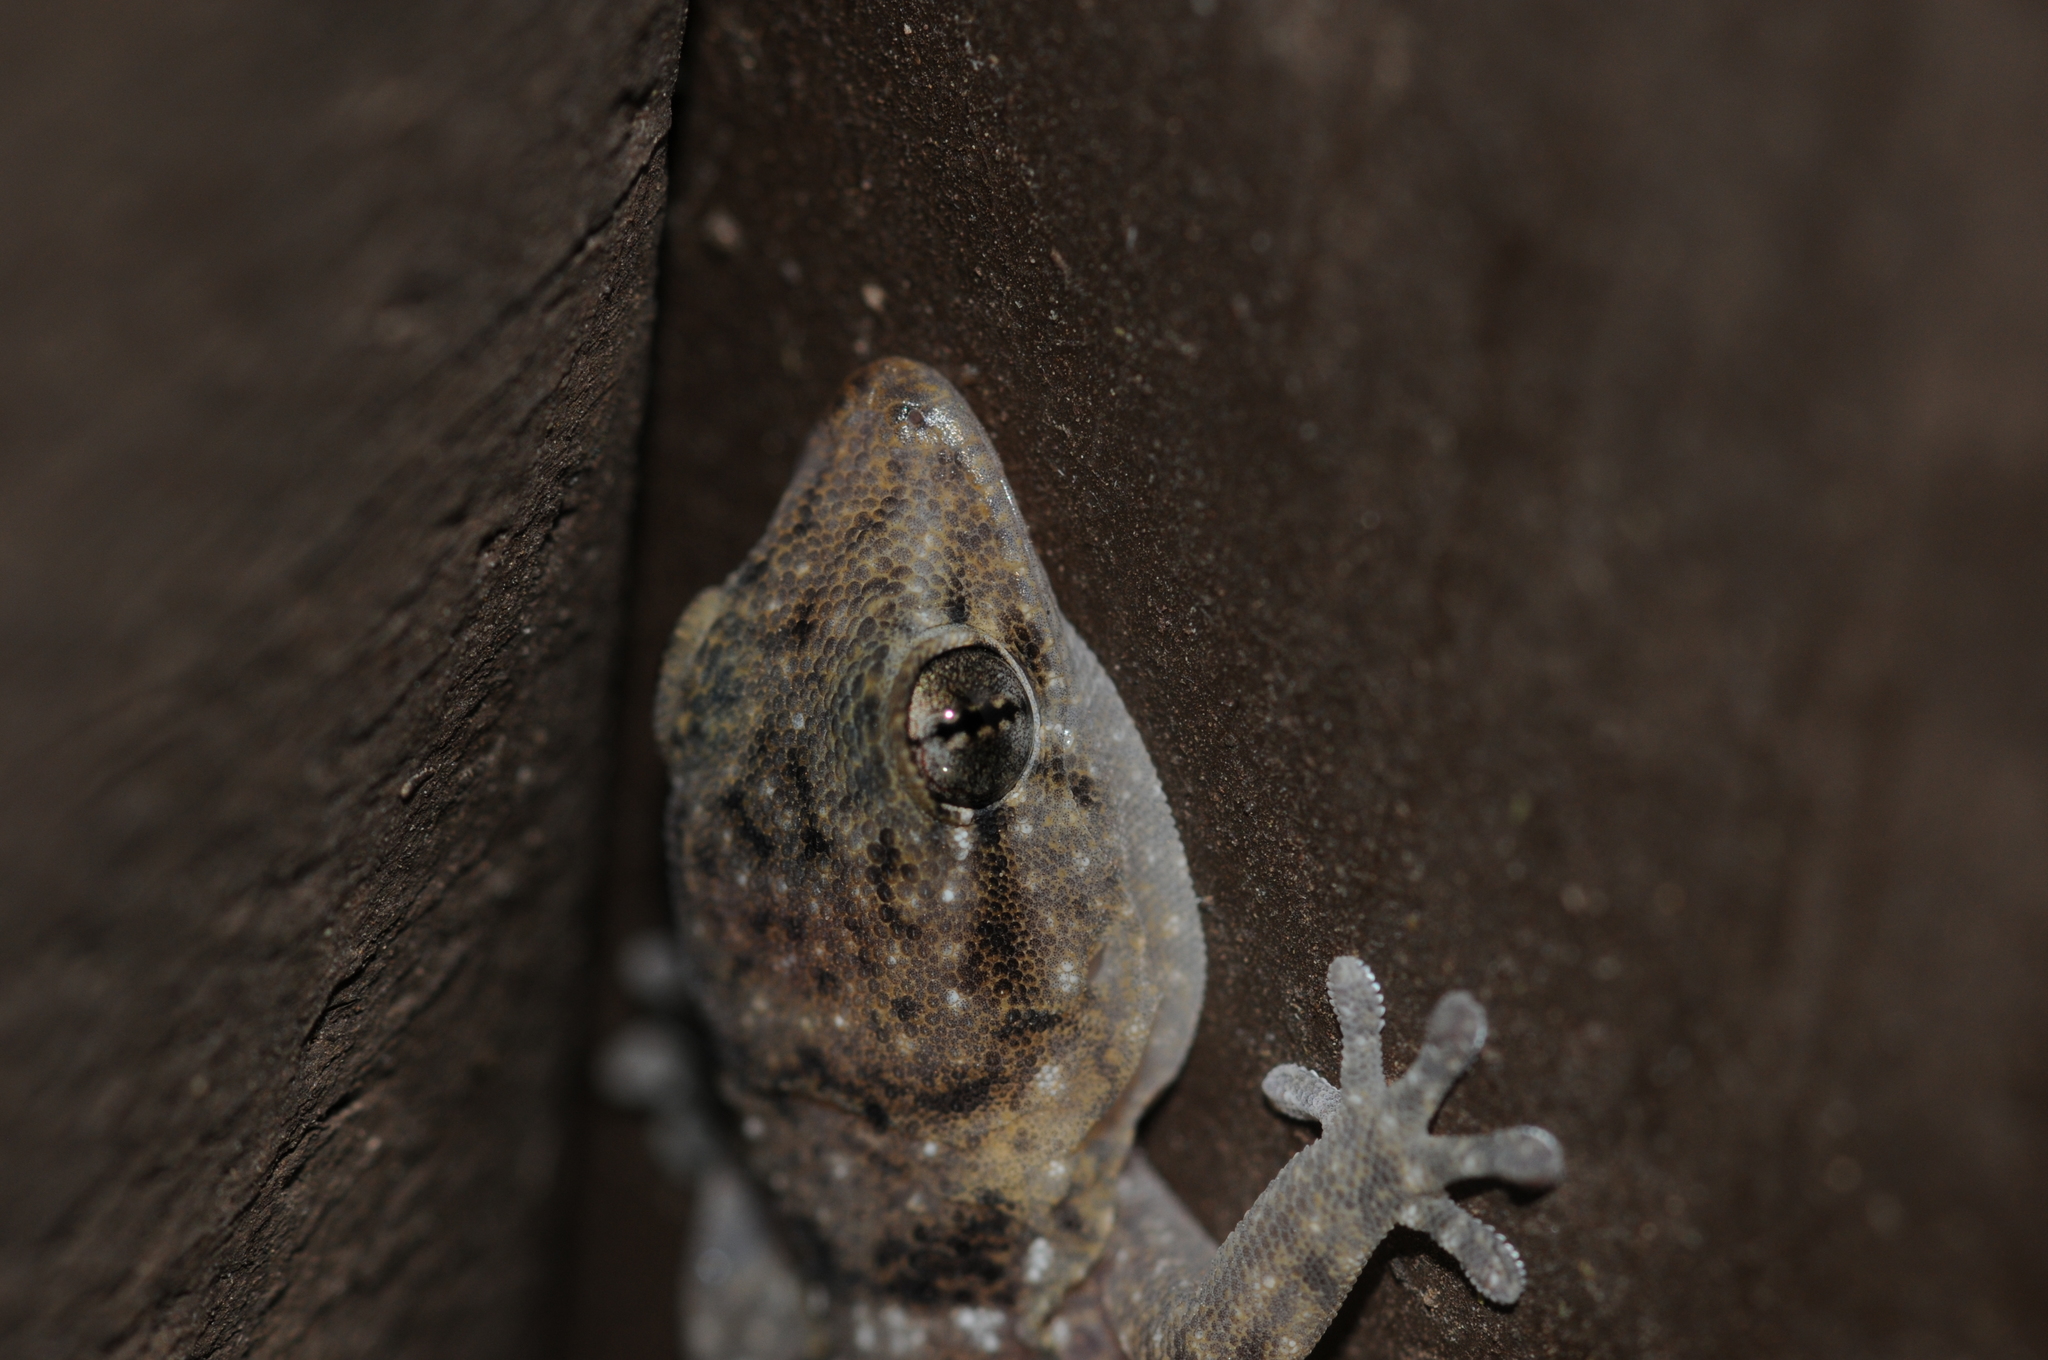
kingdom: Animalia
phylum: Chordata
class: Squamata
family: Phyllodactylidae
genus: Tarentola
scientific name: Tarentola boettgeri
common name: Boettger's wall gecko
